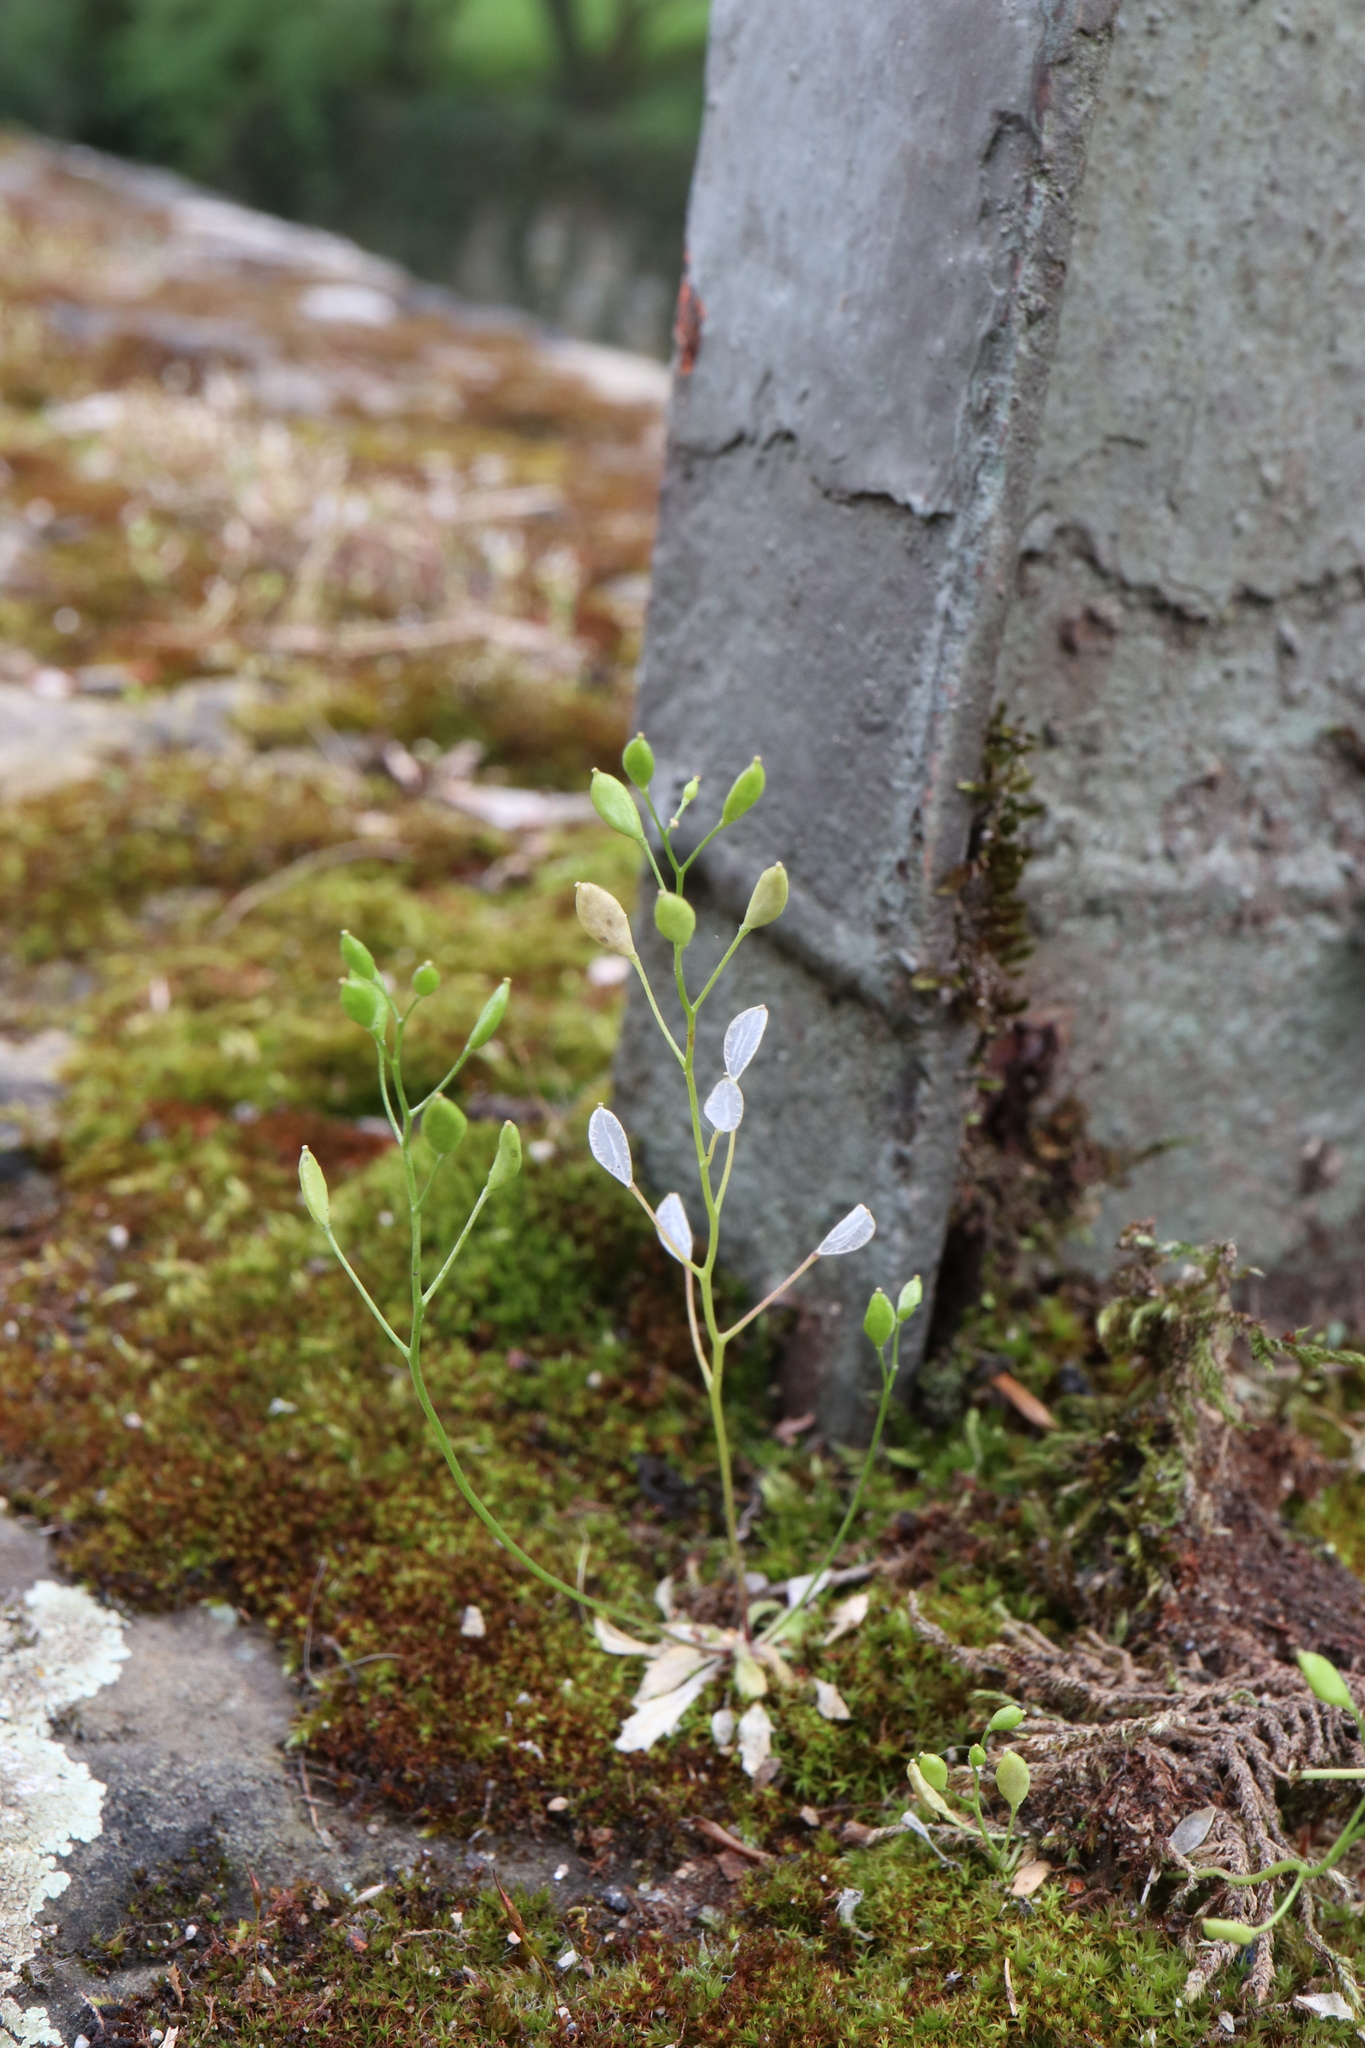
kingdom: Plantae
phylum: Tracheophyta
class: Magnoliopsida
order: Brassicales
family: Brassicaceae
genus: Draba
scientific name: Draba verna
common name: Spring draba
